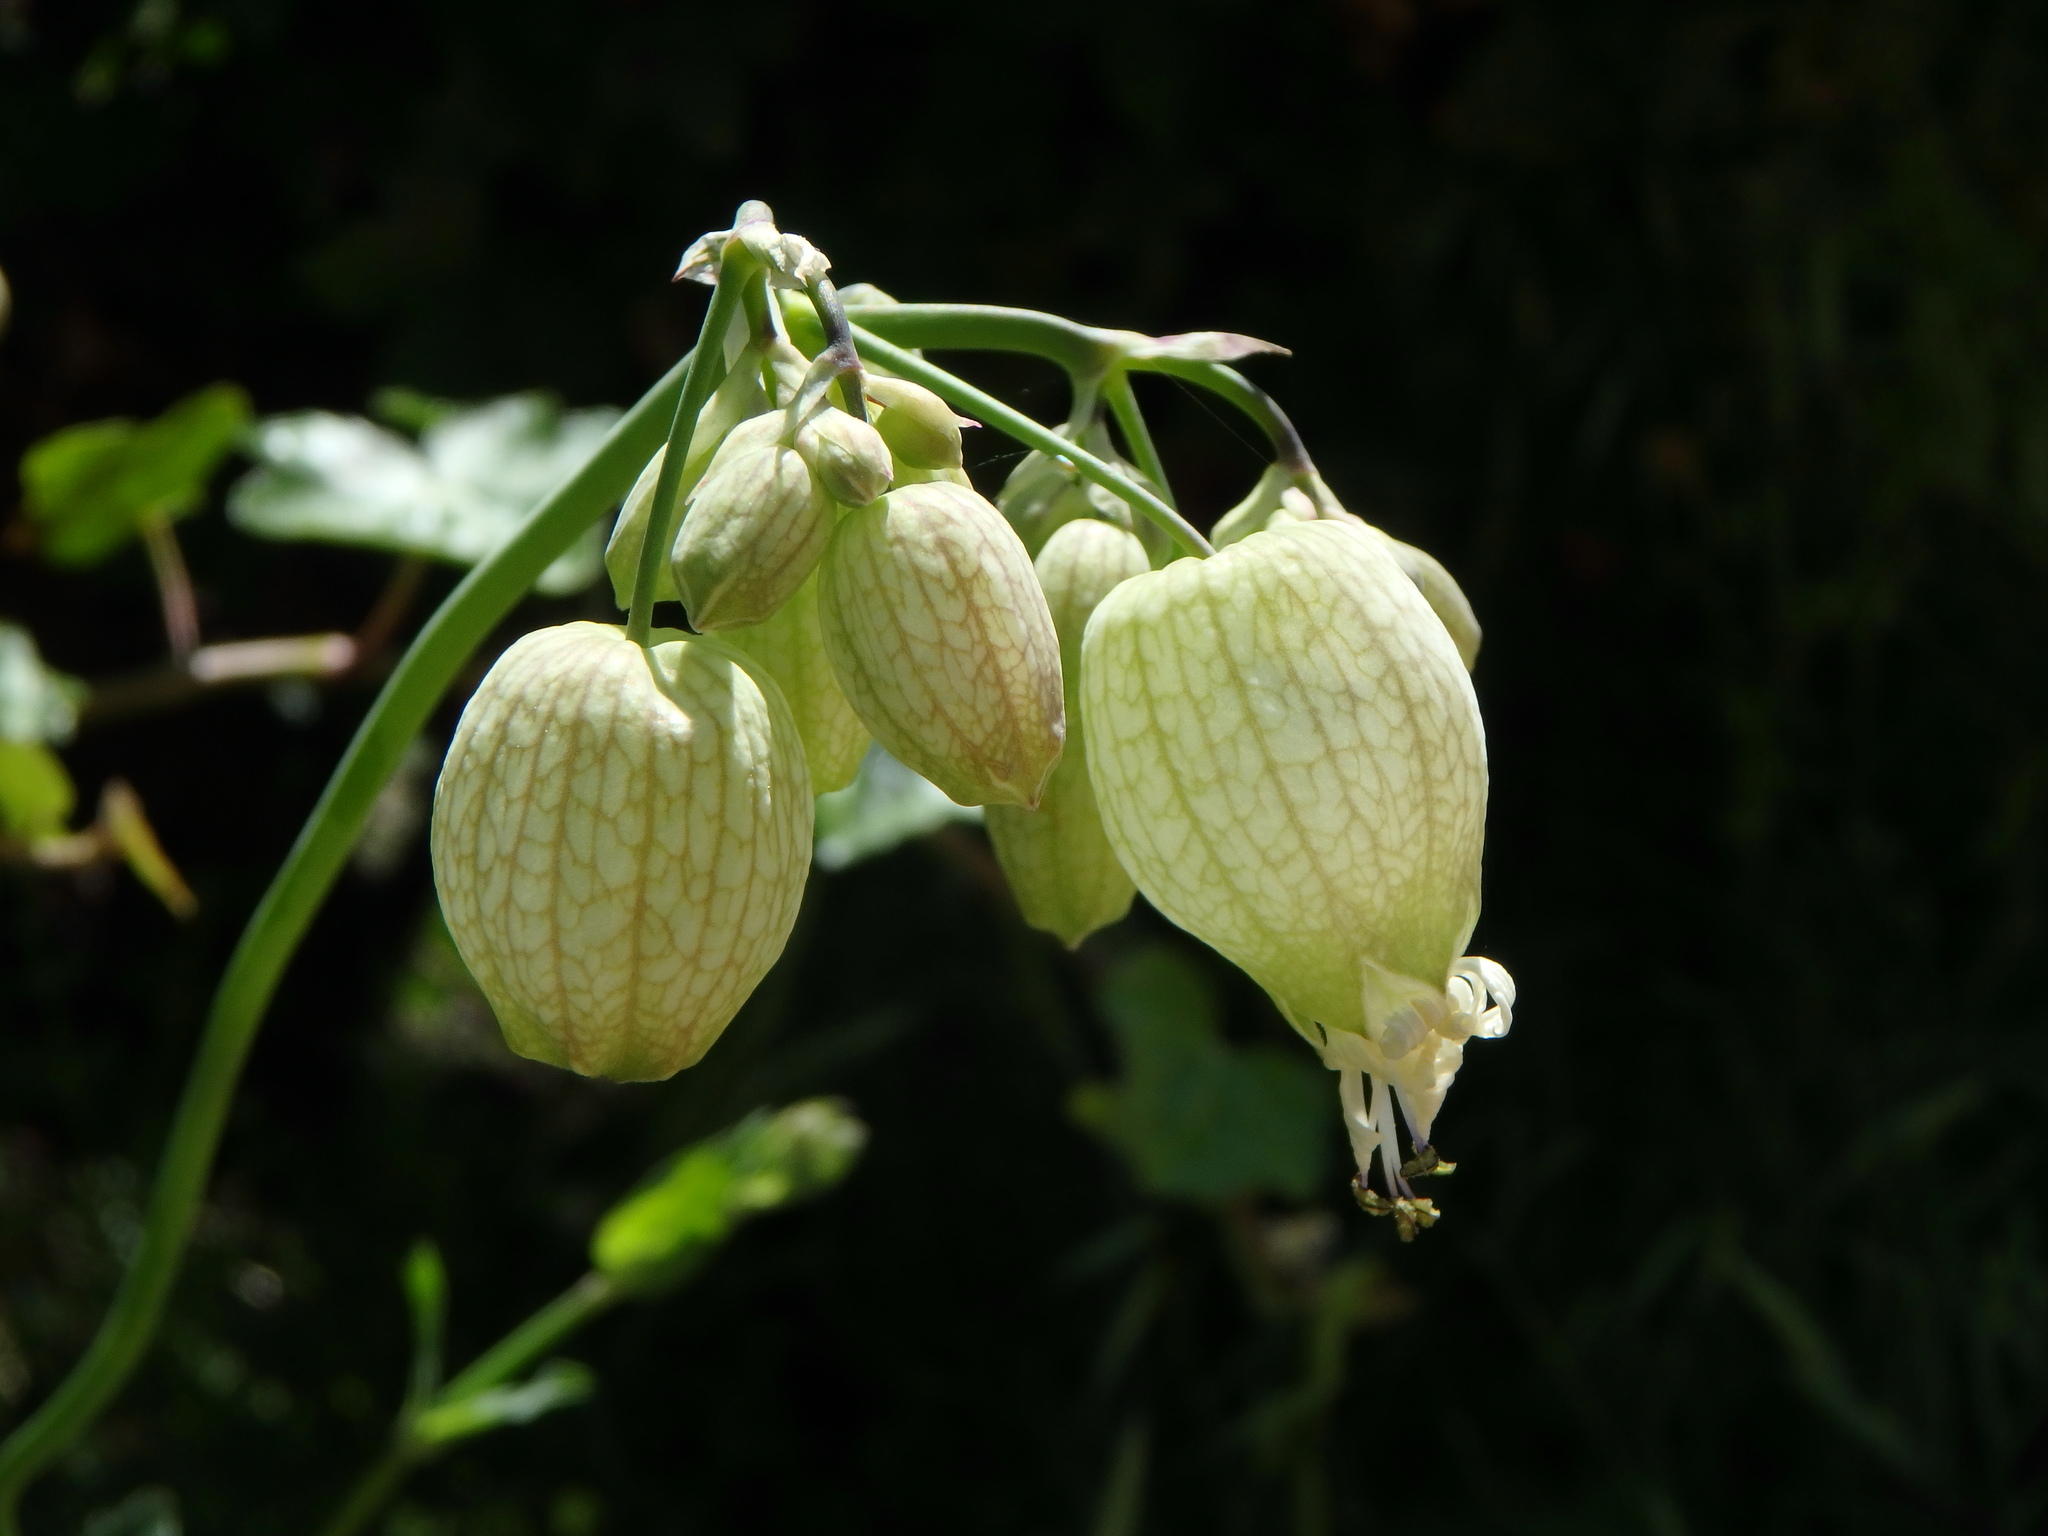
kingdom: Plantae
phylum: Tracheophyta
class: Magnoliopsida
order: Caryophyllales
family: Caryophyllaceae
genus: Silene
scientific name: Silene vulgaris
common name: Bladder campion
